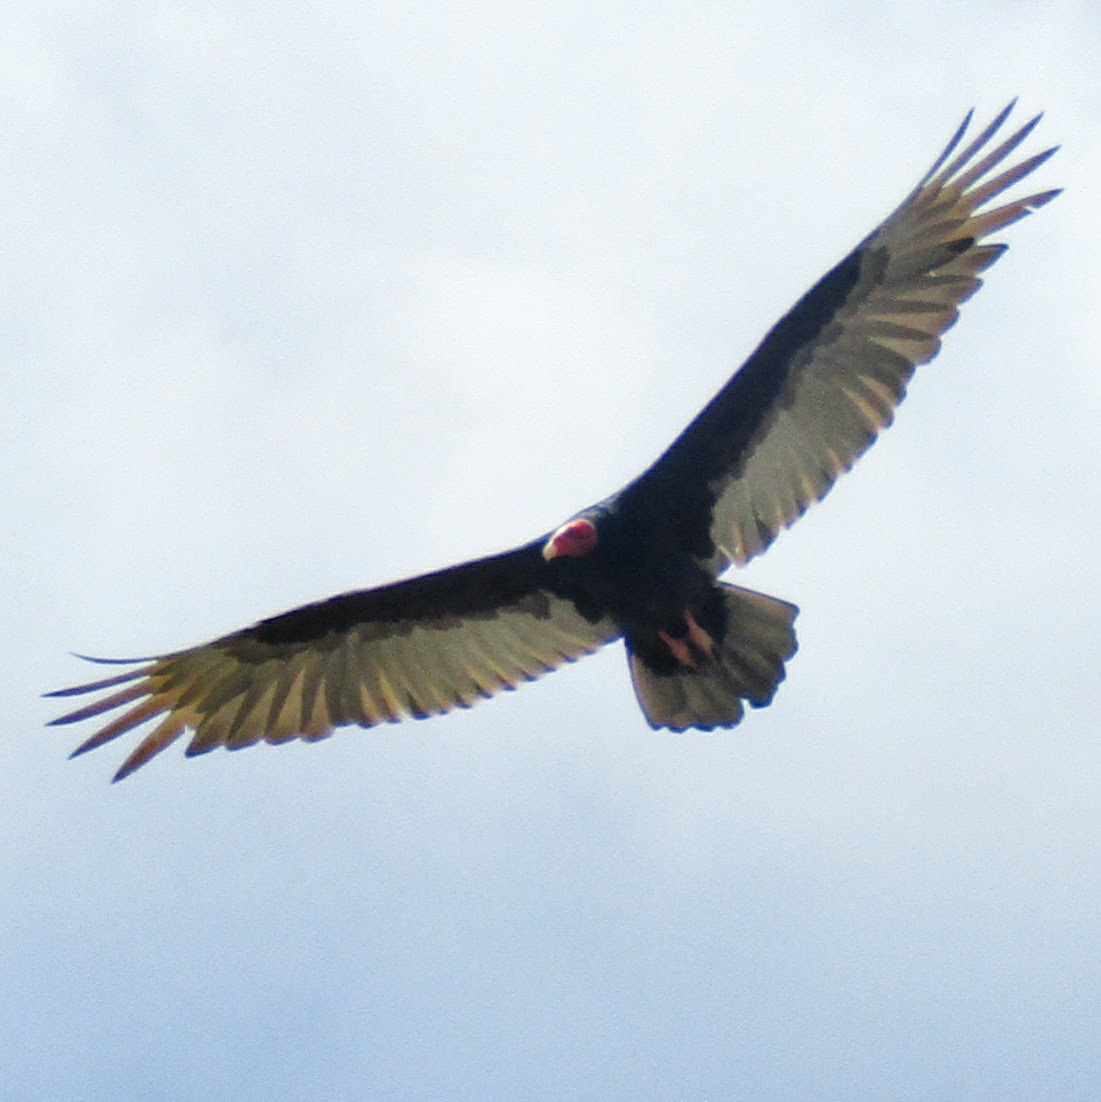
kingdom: Animalia
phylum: Chordata
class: Aves
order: Accipitriformes
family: Cathartidae
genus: Cathartes
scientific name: Cathartes aura
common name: Turkey vulture
